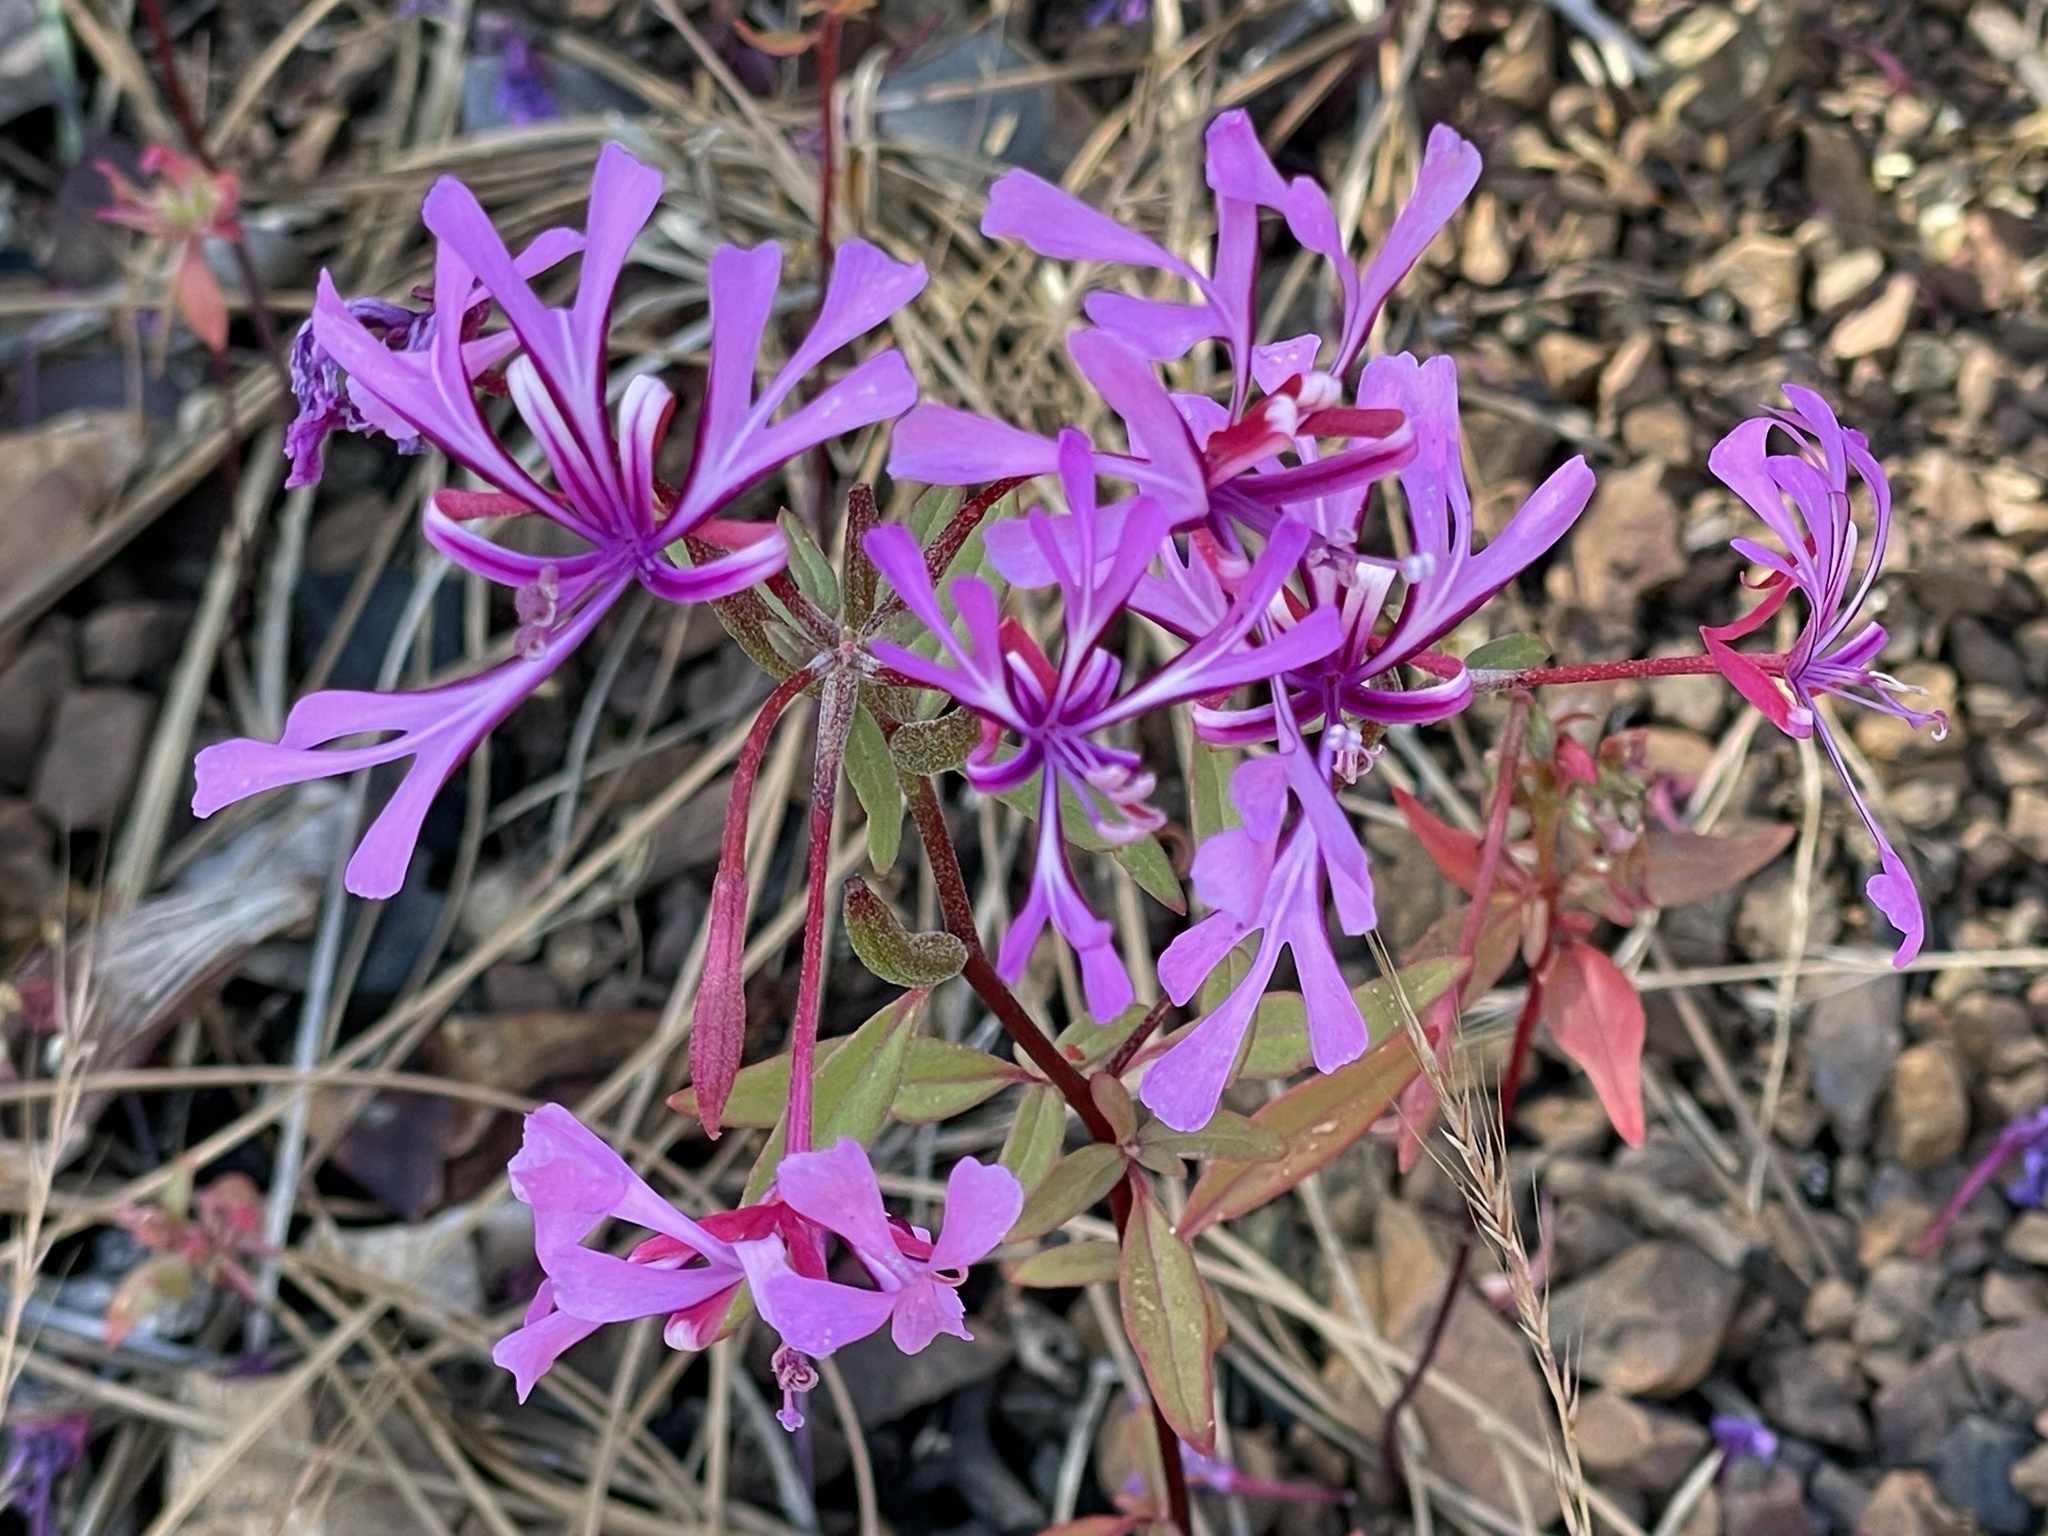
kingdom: Plantae
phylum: Tracheophyta
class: Magnoliopsida
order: Myrtales
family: Onagraceae
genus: Clarkia
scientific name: Clarkia concinna
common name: Red-ribbons
